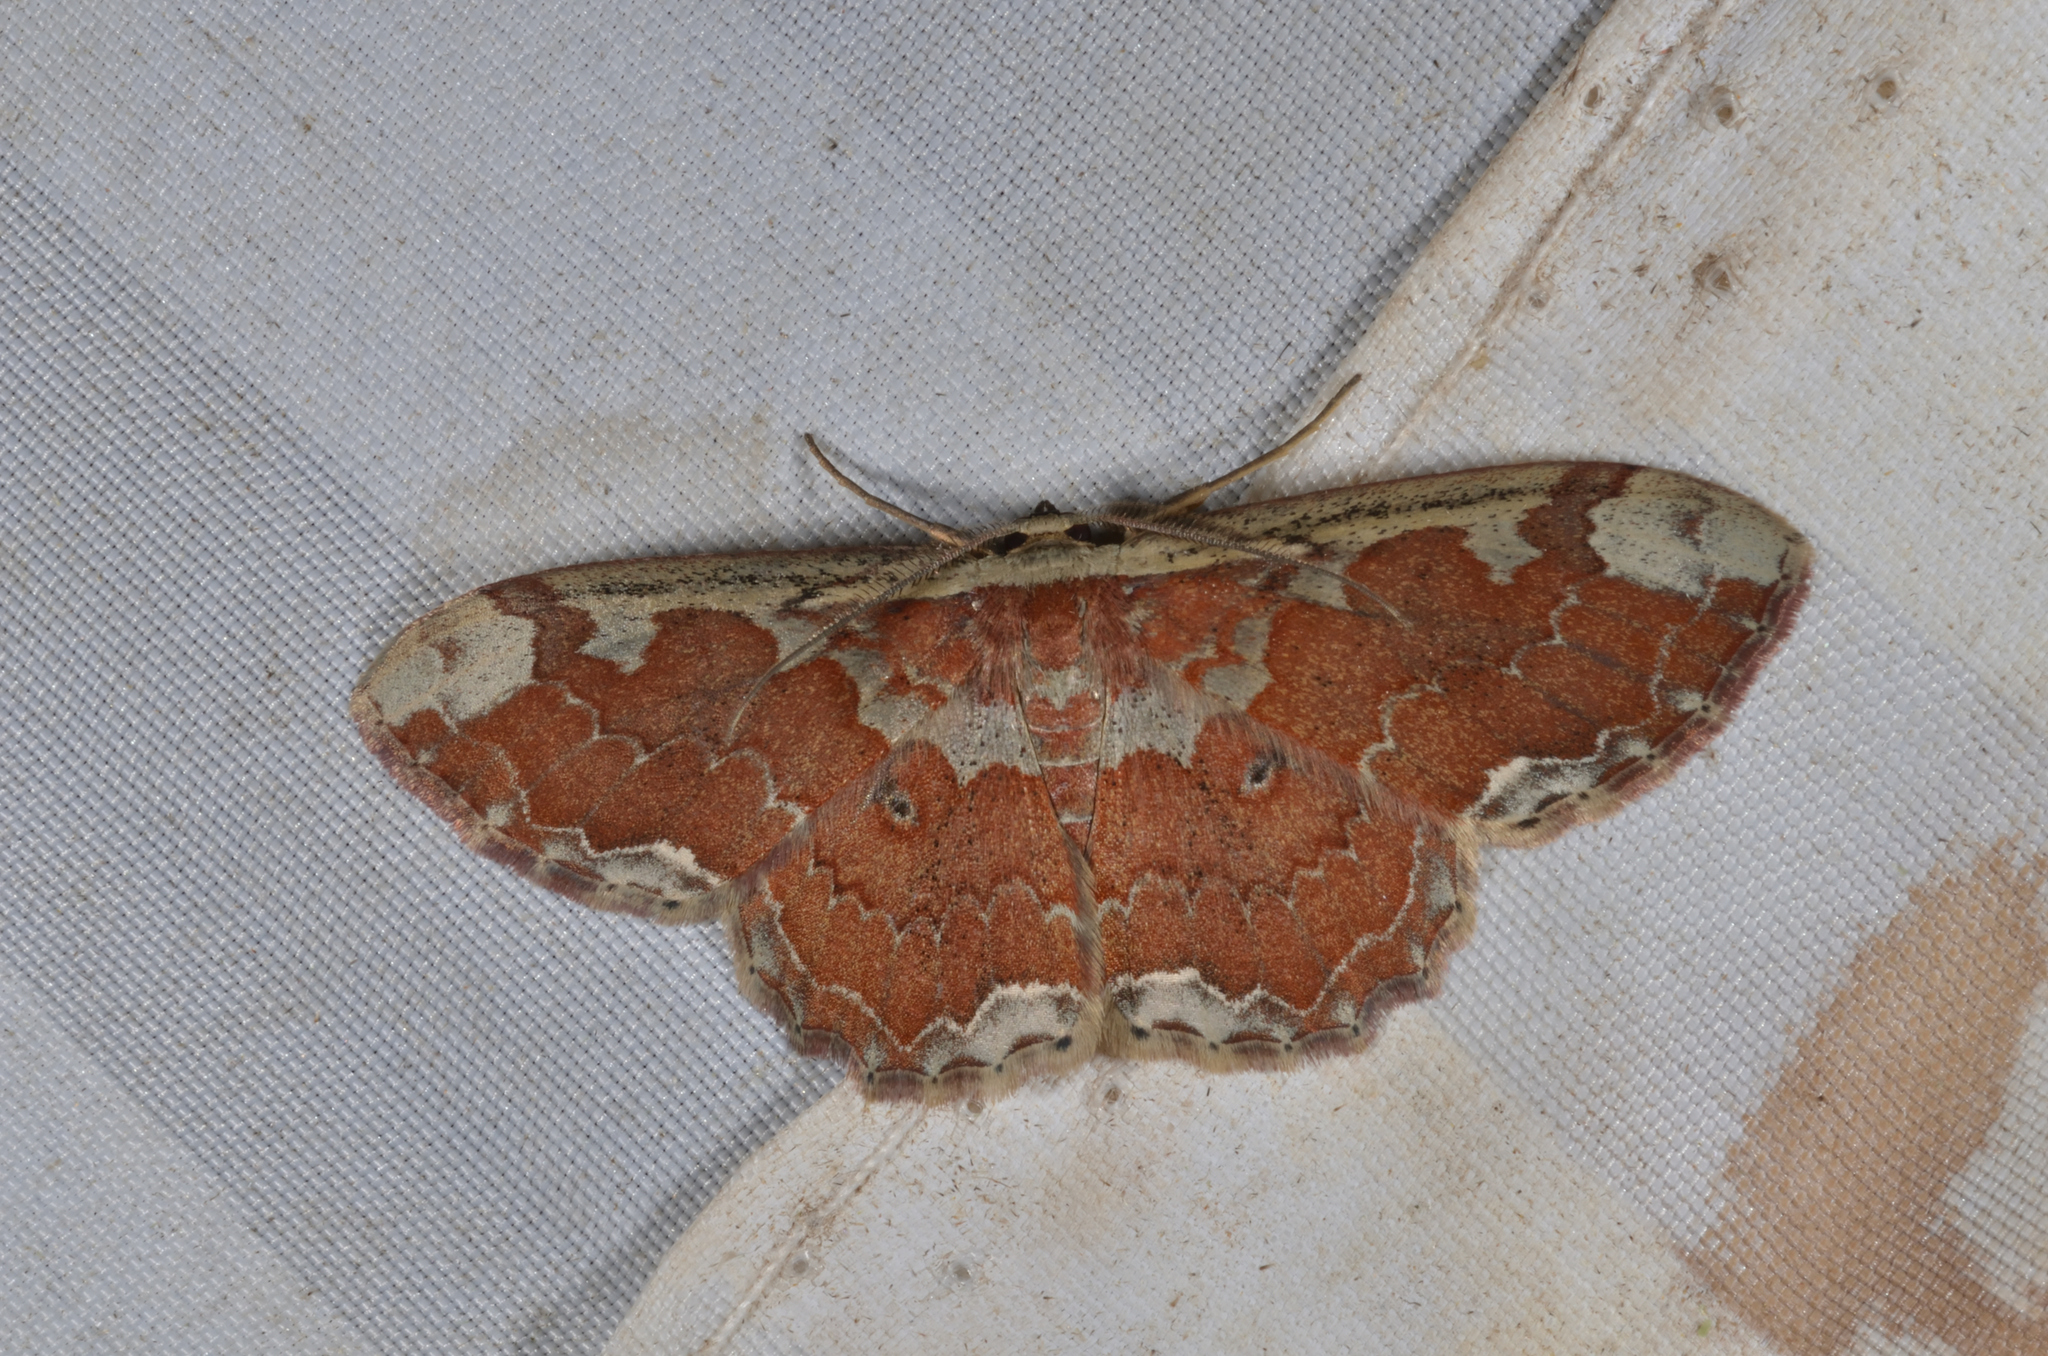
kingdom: Animalia
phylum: Arthropoda
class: Insecta
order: Lepidoptera
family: Geometridae
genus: Orthoserica
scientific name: Orthoserica rufigrisea
